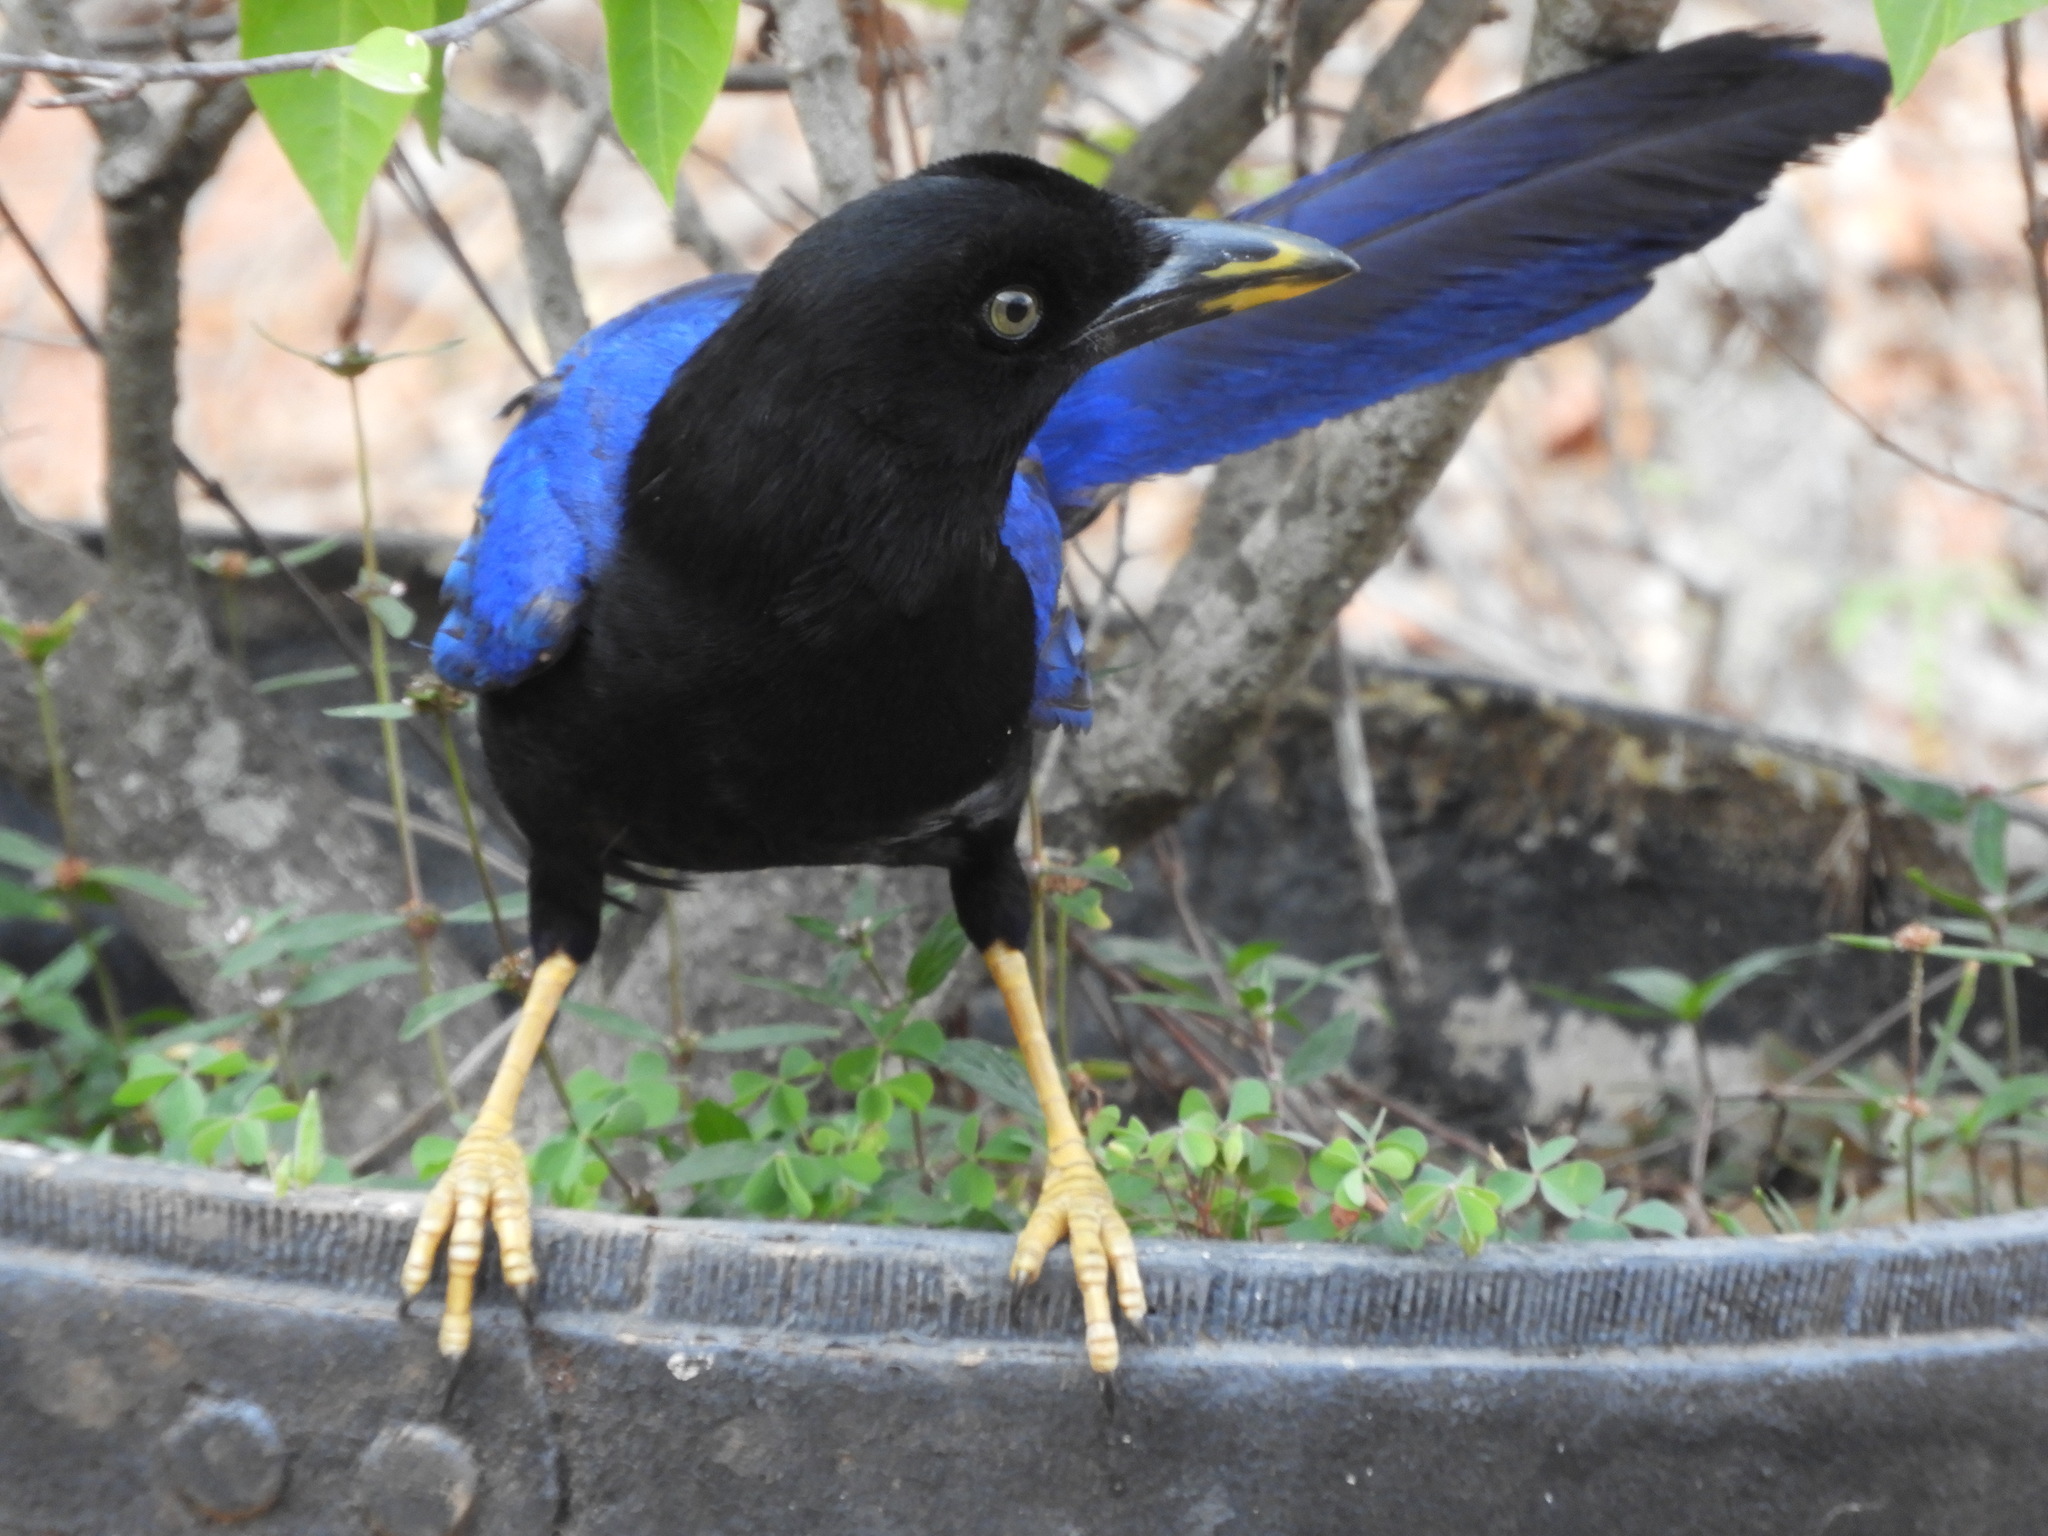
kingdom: Animalia
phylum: Chordata
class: Aves
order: Passeriformes
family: Corvidae
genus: Cyanocorax
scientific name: Cyanocorax beecheii
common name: Purplish-backed jay
